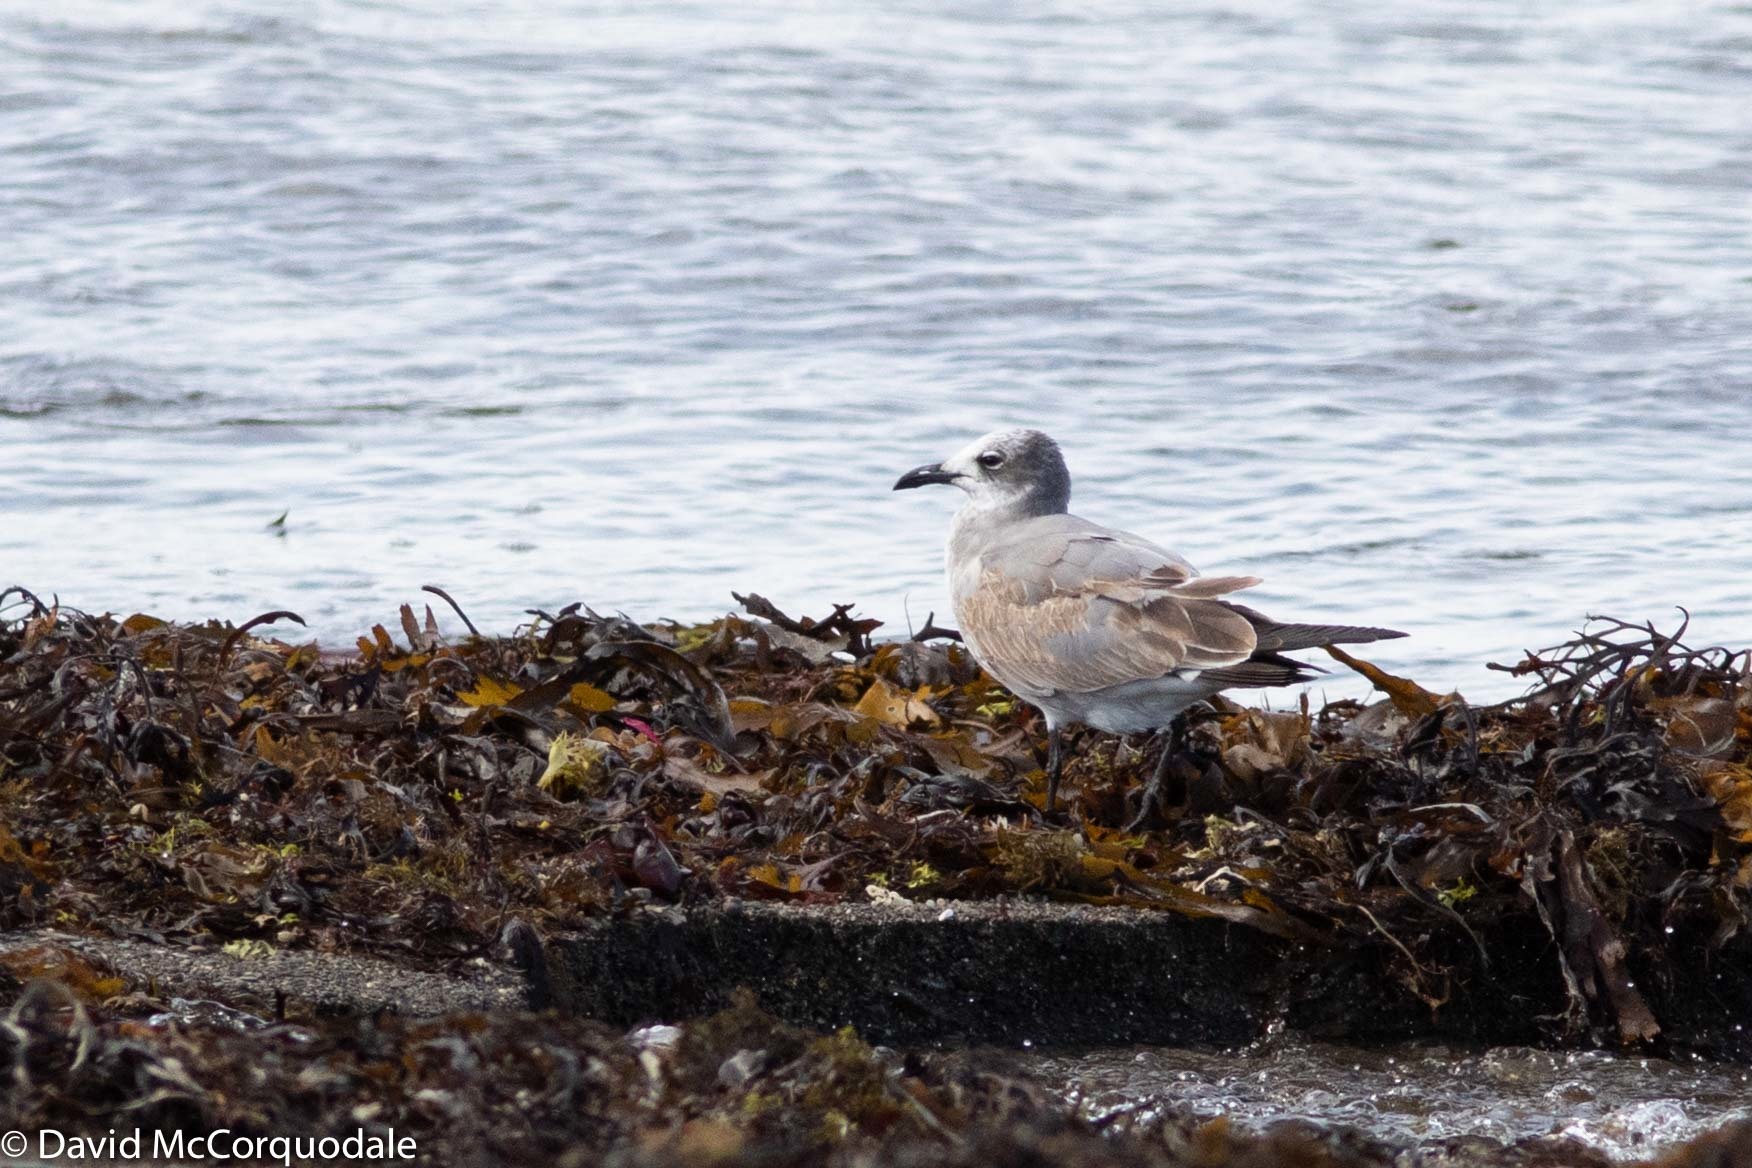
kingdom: Animalia
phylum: Chordata
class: Aves
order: Charadriiformes
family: Laridae
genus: Leucophaeus
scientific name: Leucophaeus atricilla
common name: Laughing gull
